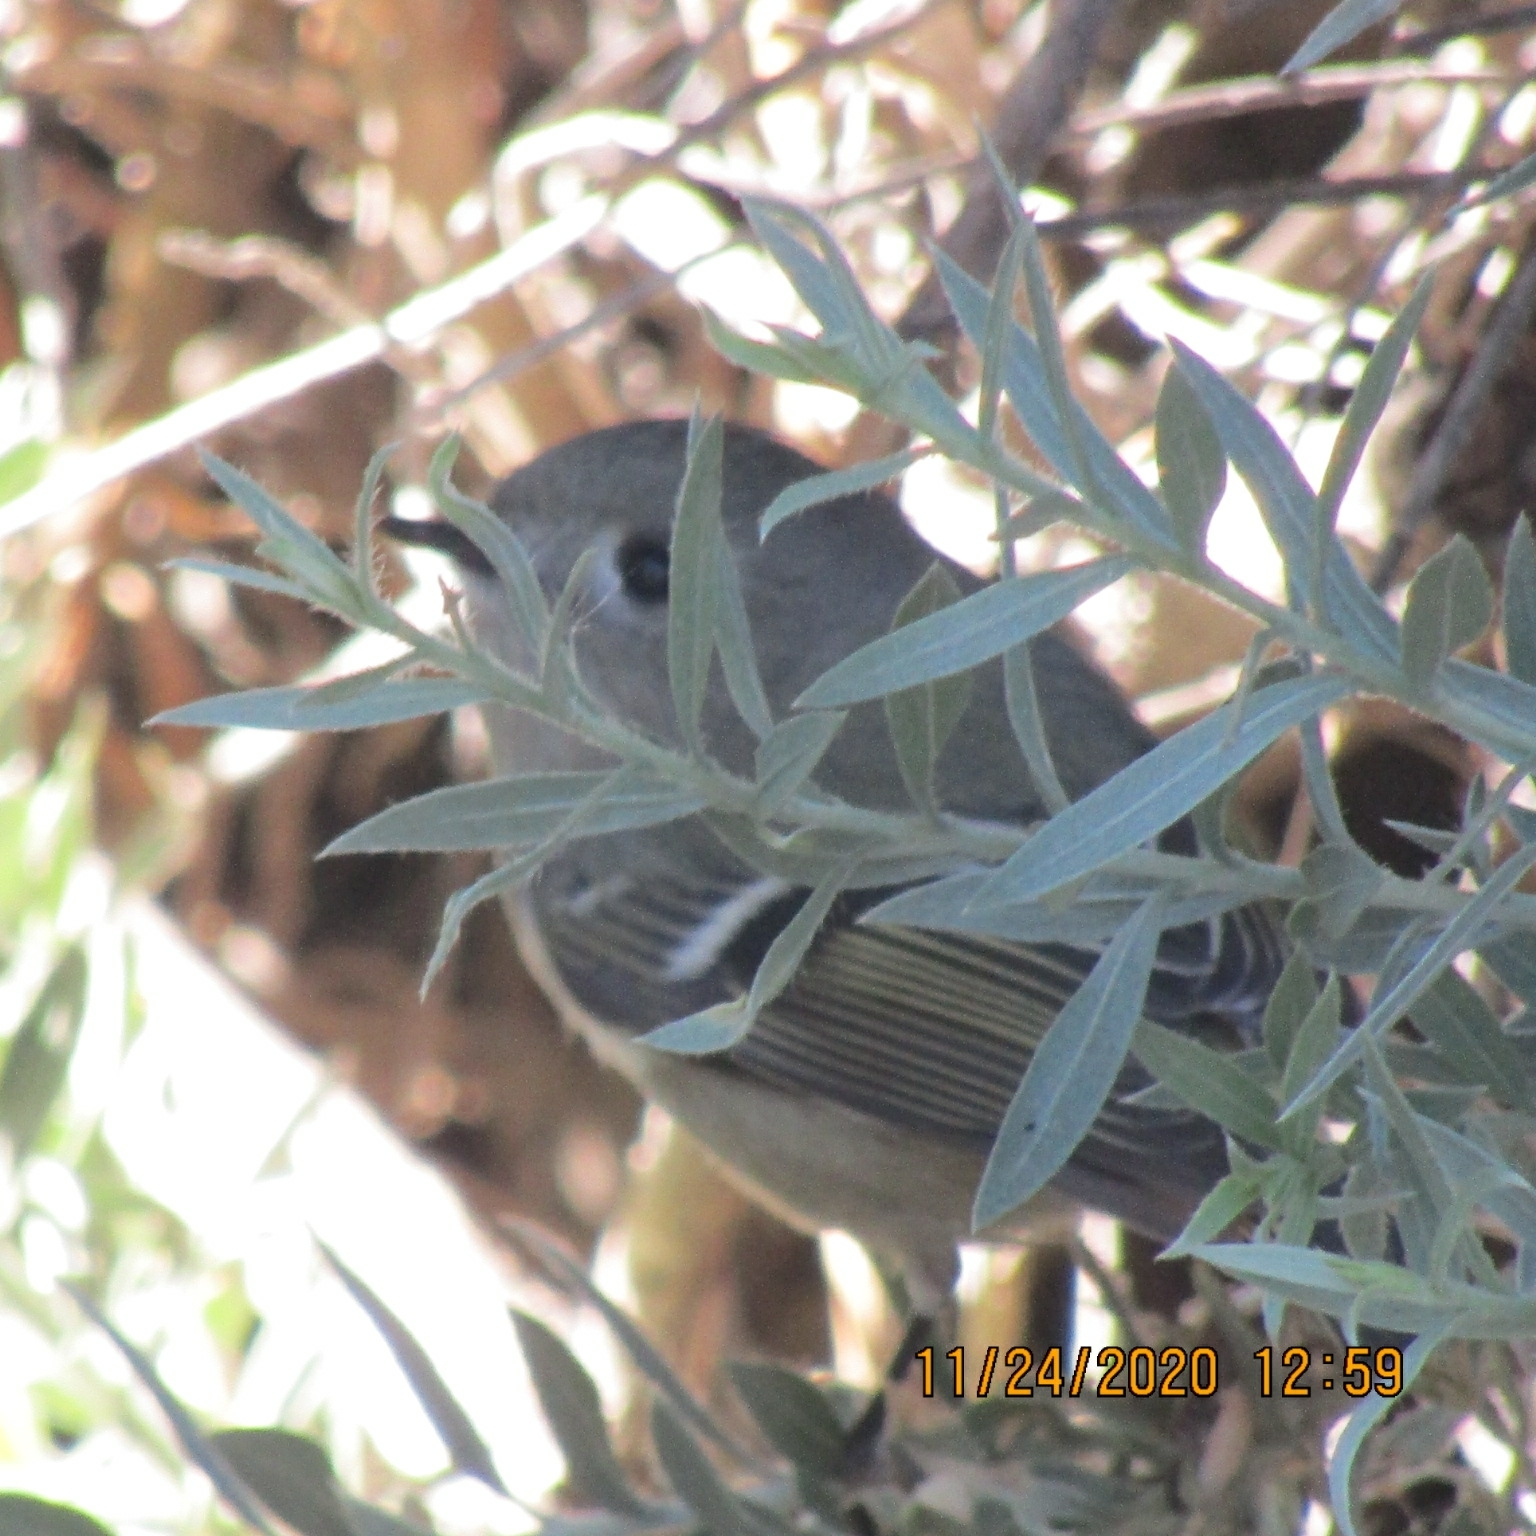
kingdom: Animalia
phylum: Chordata
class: Aves
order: Passeriformes
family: Regulidae
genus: Regulus
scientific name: Regulus calendula
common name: Ruby-crowned kinglet
